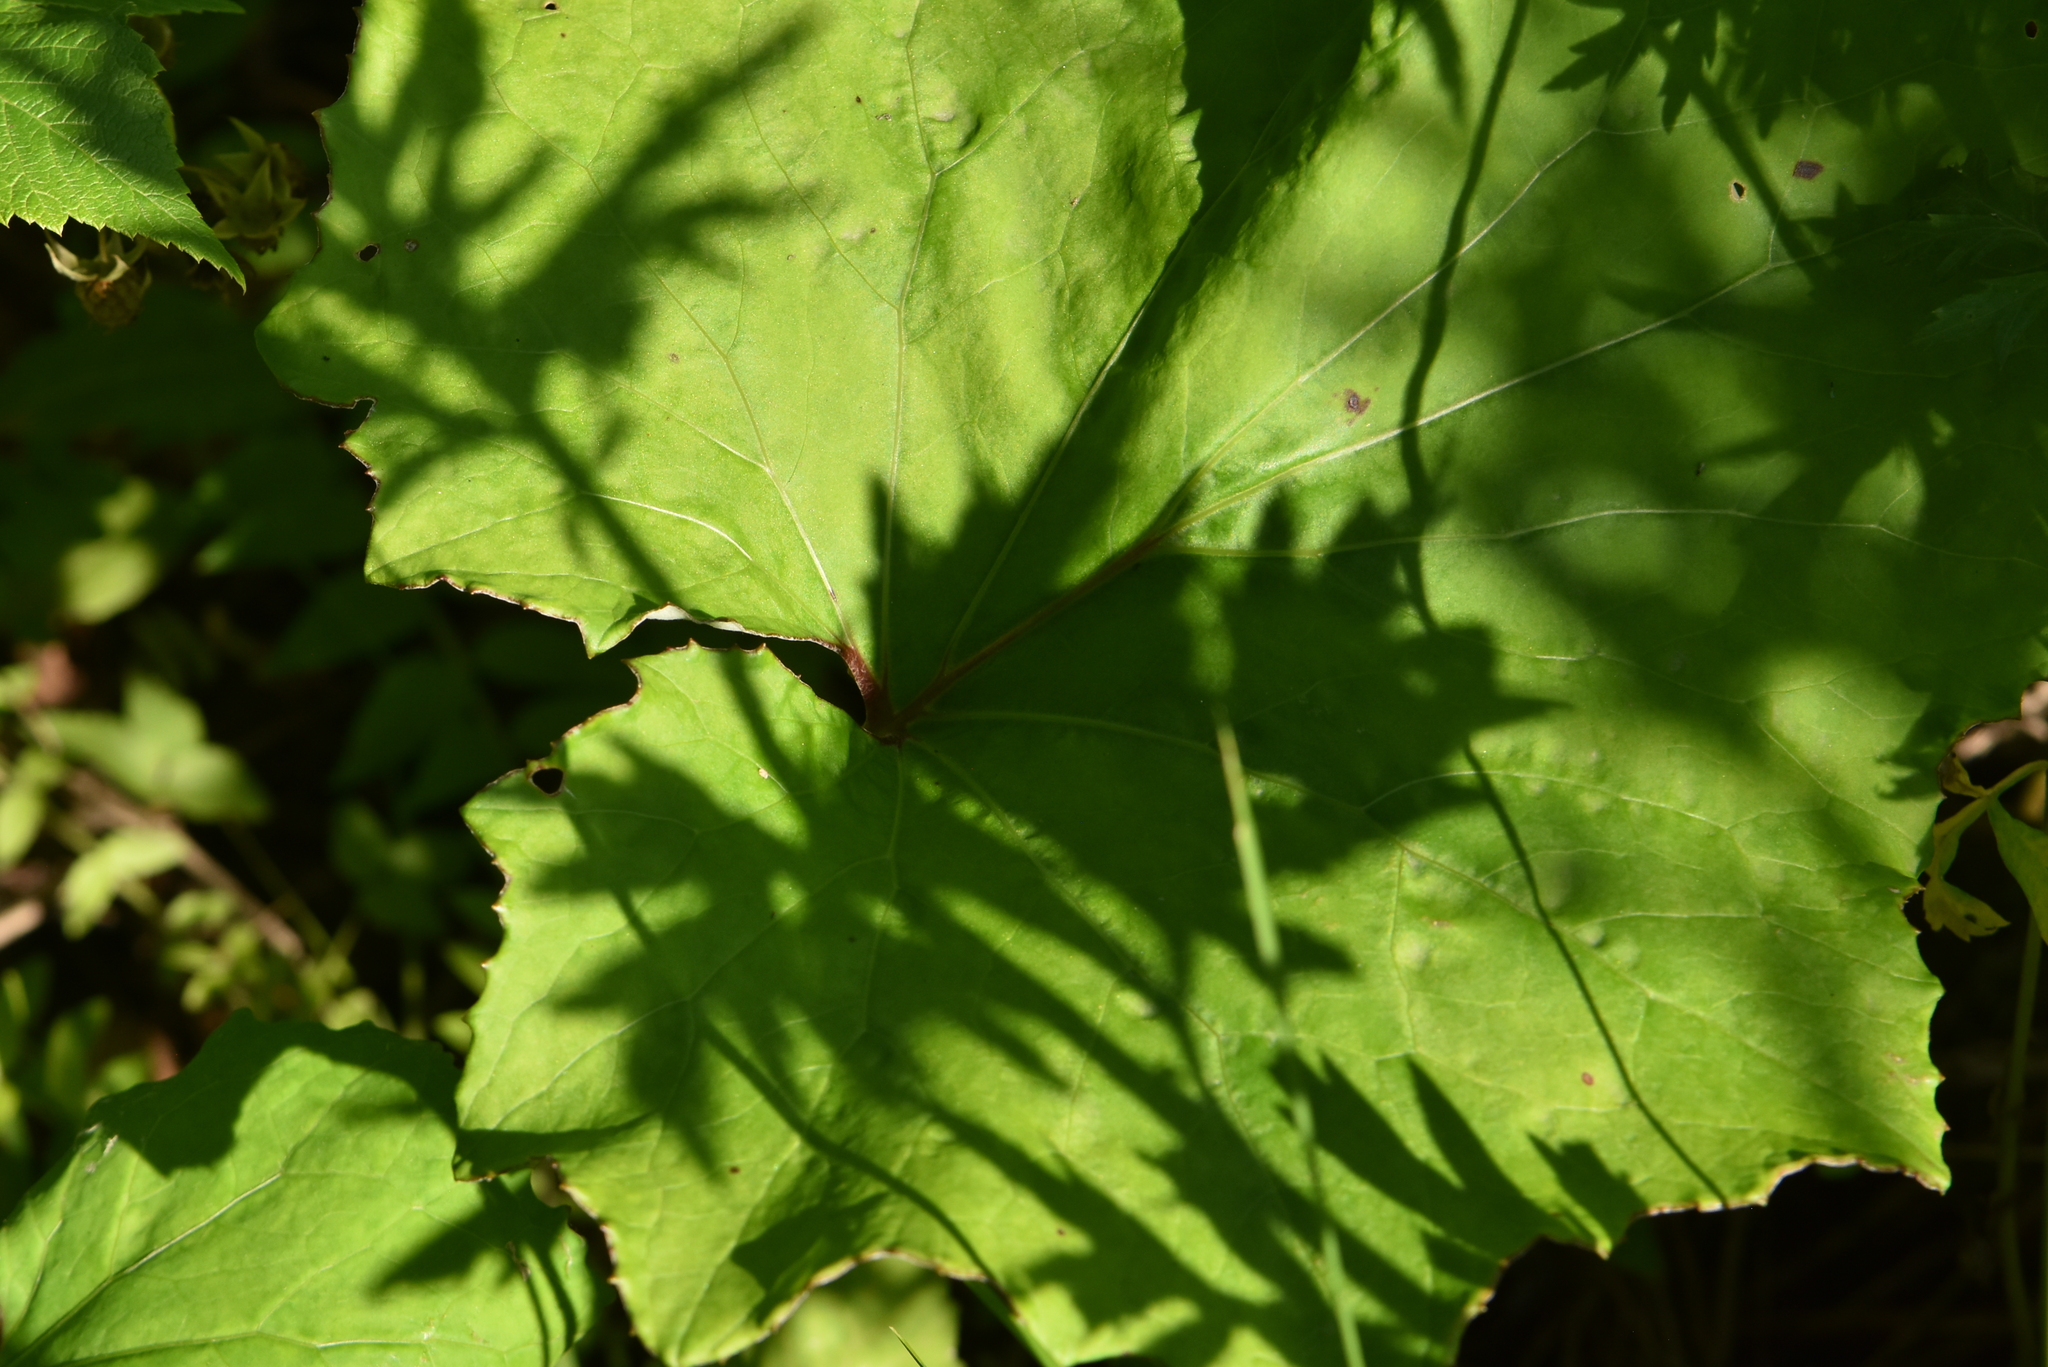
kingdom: Plantae
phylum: Tracheophyta
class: Magnoliopsida
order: Asterales
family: Asteraceae
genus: Tussilago
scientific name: Tussilago farfara
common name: Coltsfoot
